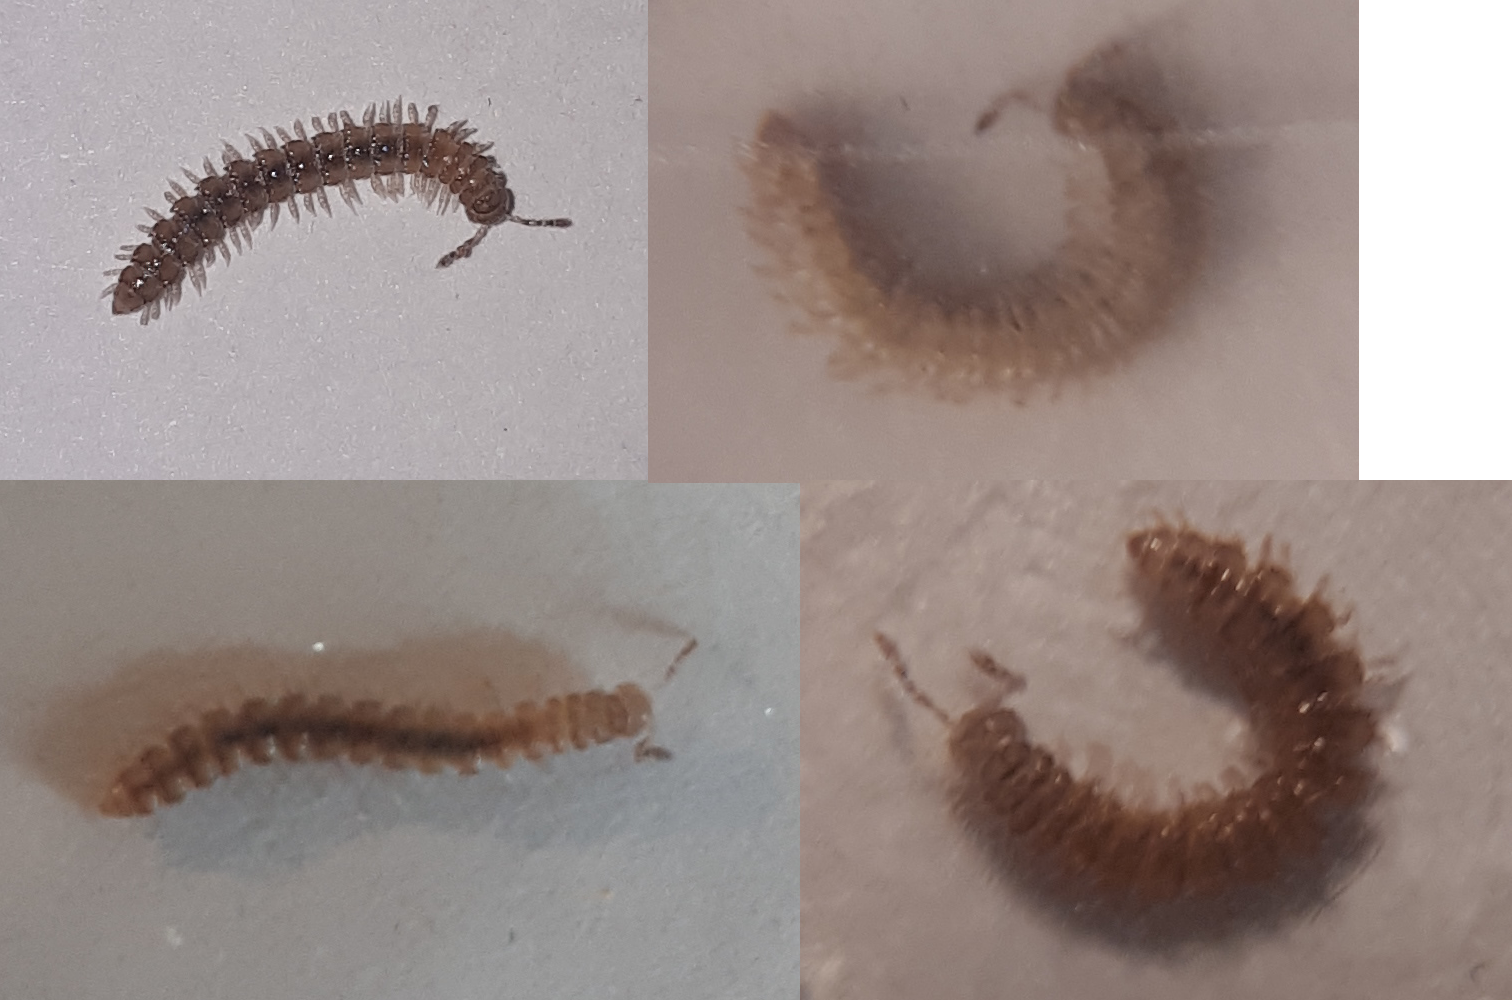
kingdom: Animalia
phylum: Arthropoda
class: Diplopoda
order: Polydesmida
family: Polydesmidae
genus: Brachydesmus
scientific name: Brachydesmus superus
